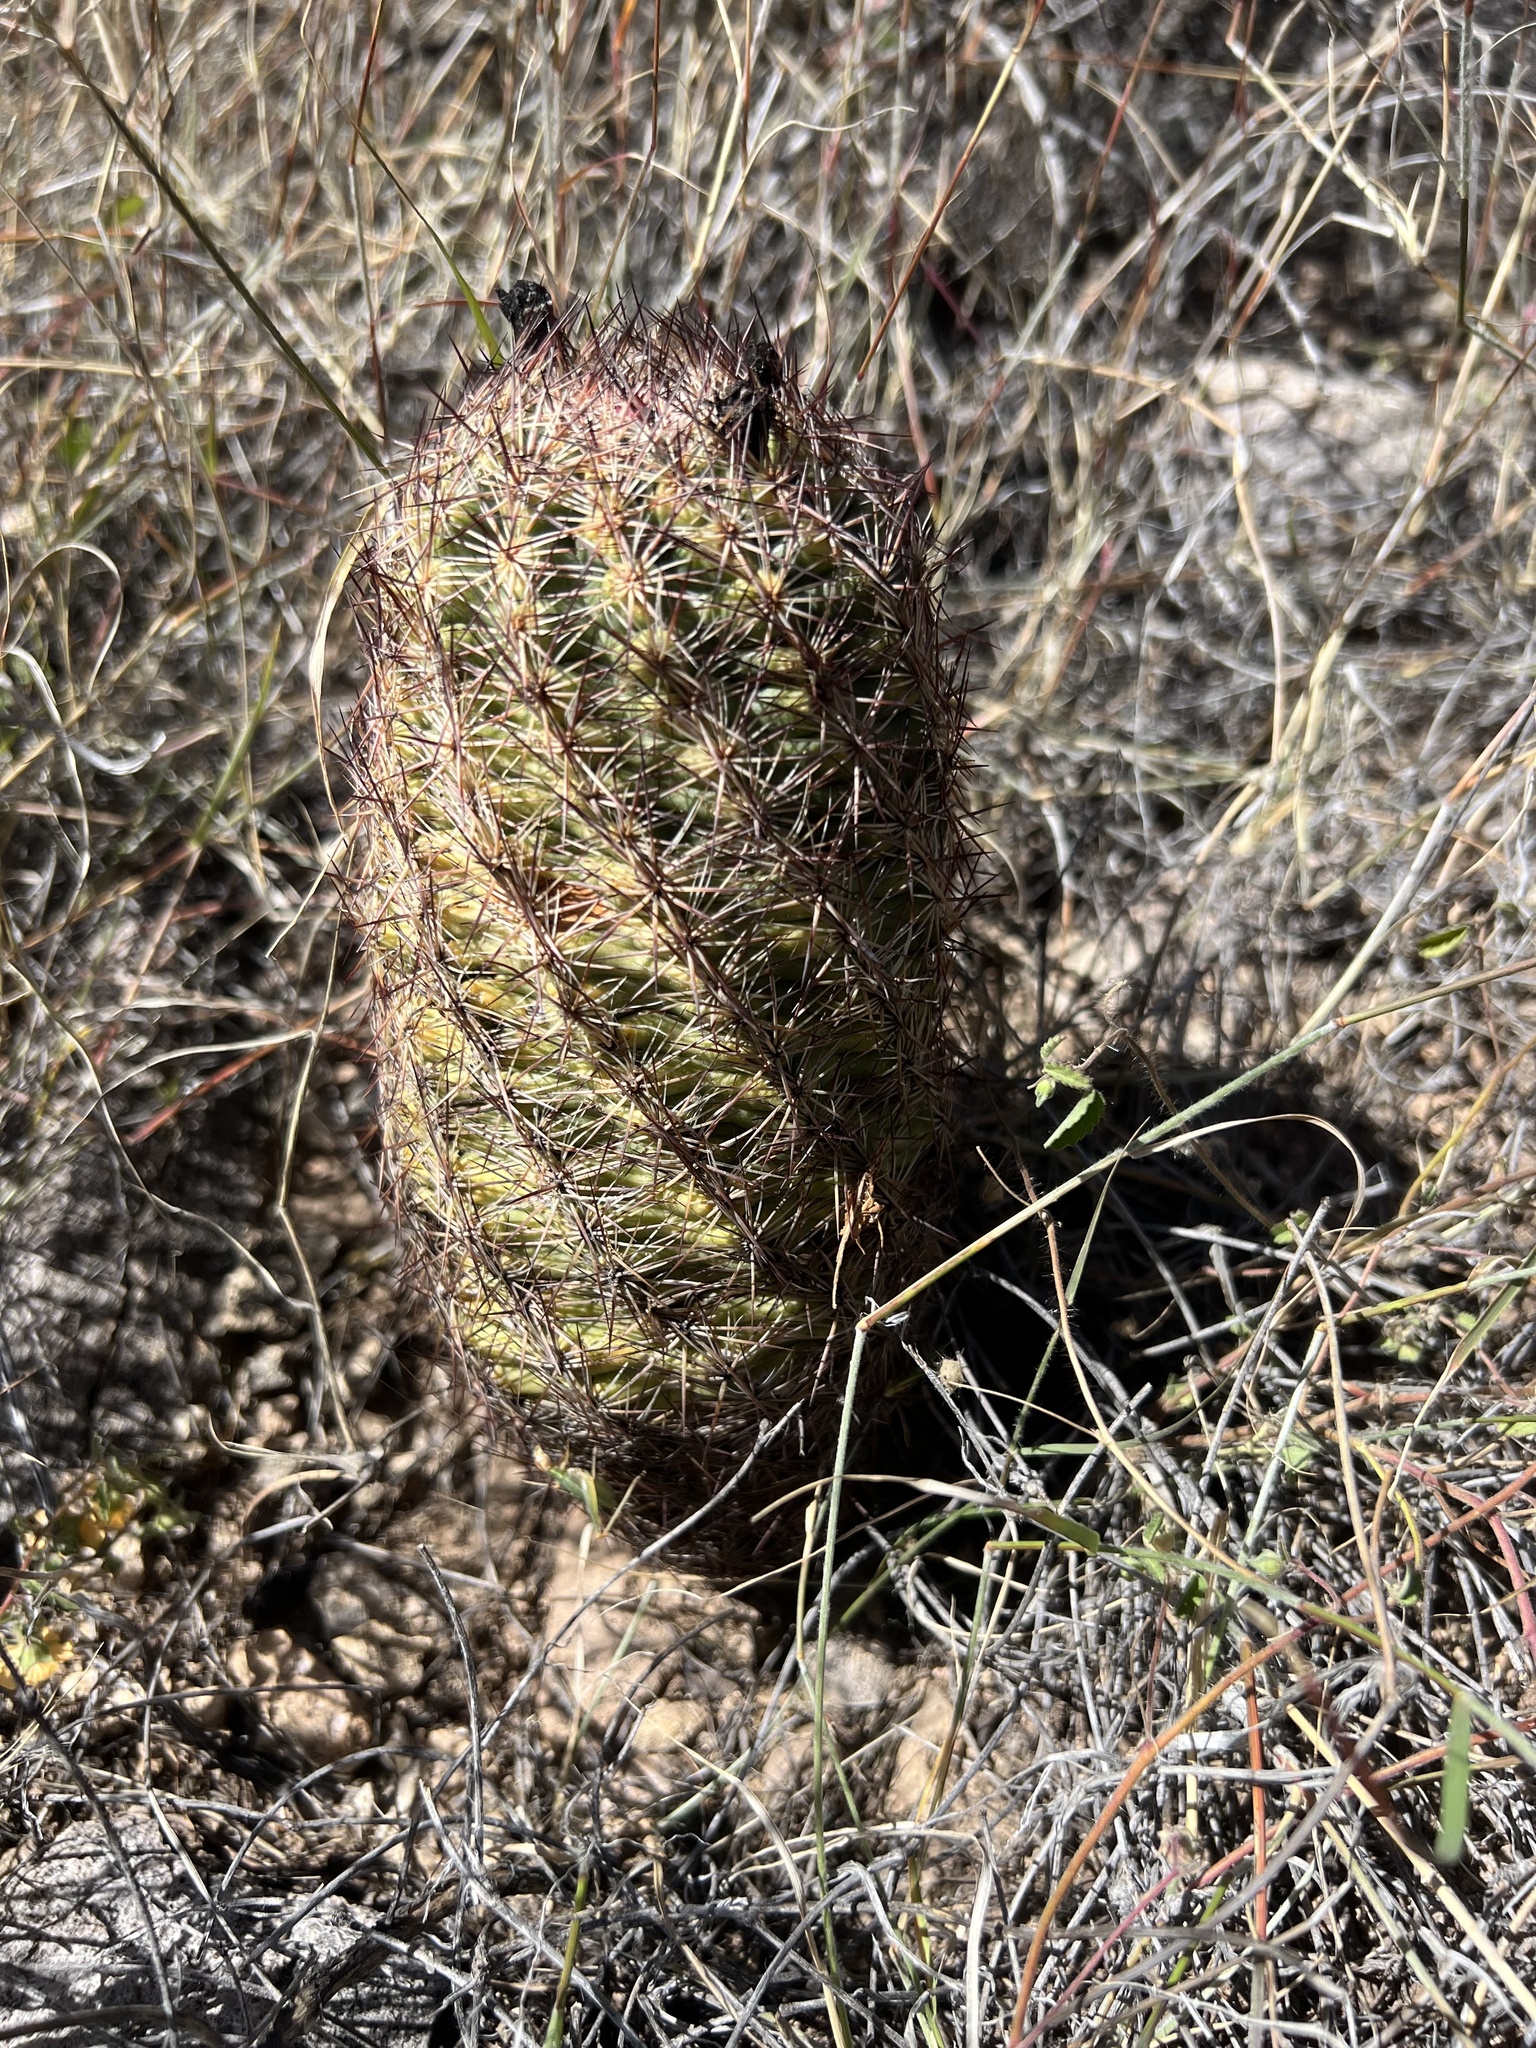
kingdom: Plantae
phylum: Tracheophyta
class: Magnoliopsida
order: Caryophyllales
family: Cactaceae
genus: Sclerocactus
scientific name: Sclerocactus intertextus
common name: White fish-hook cactus
